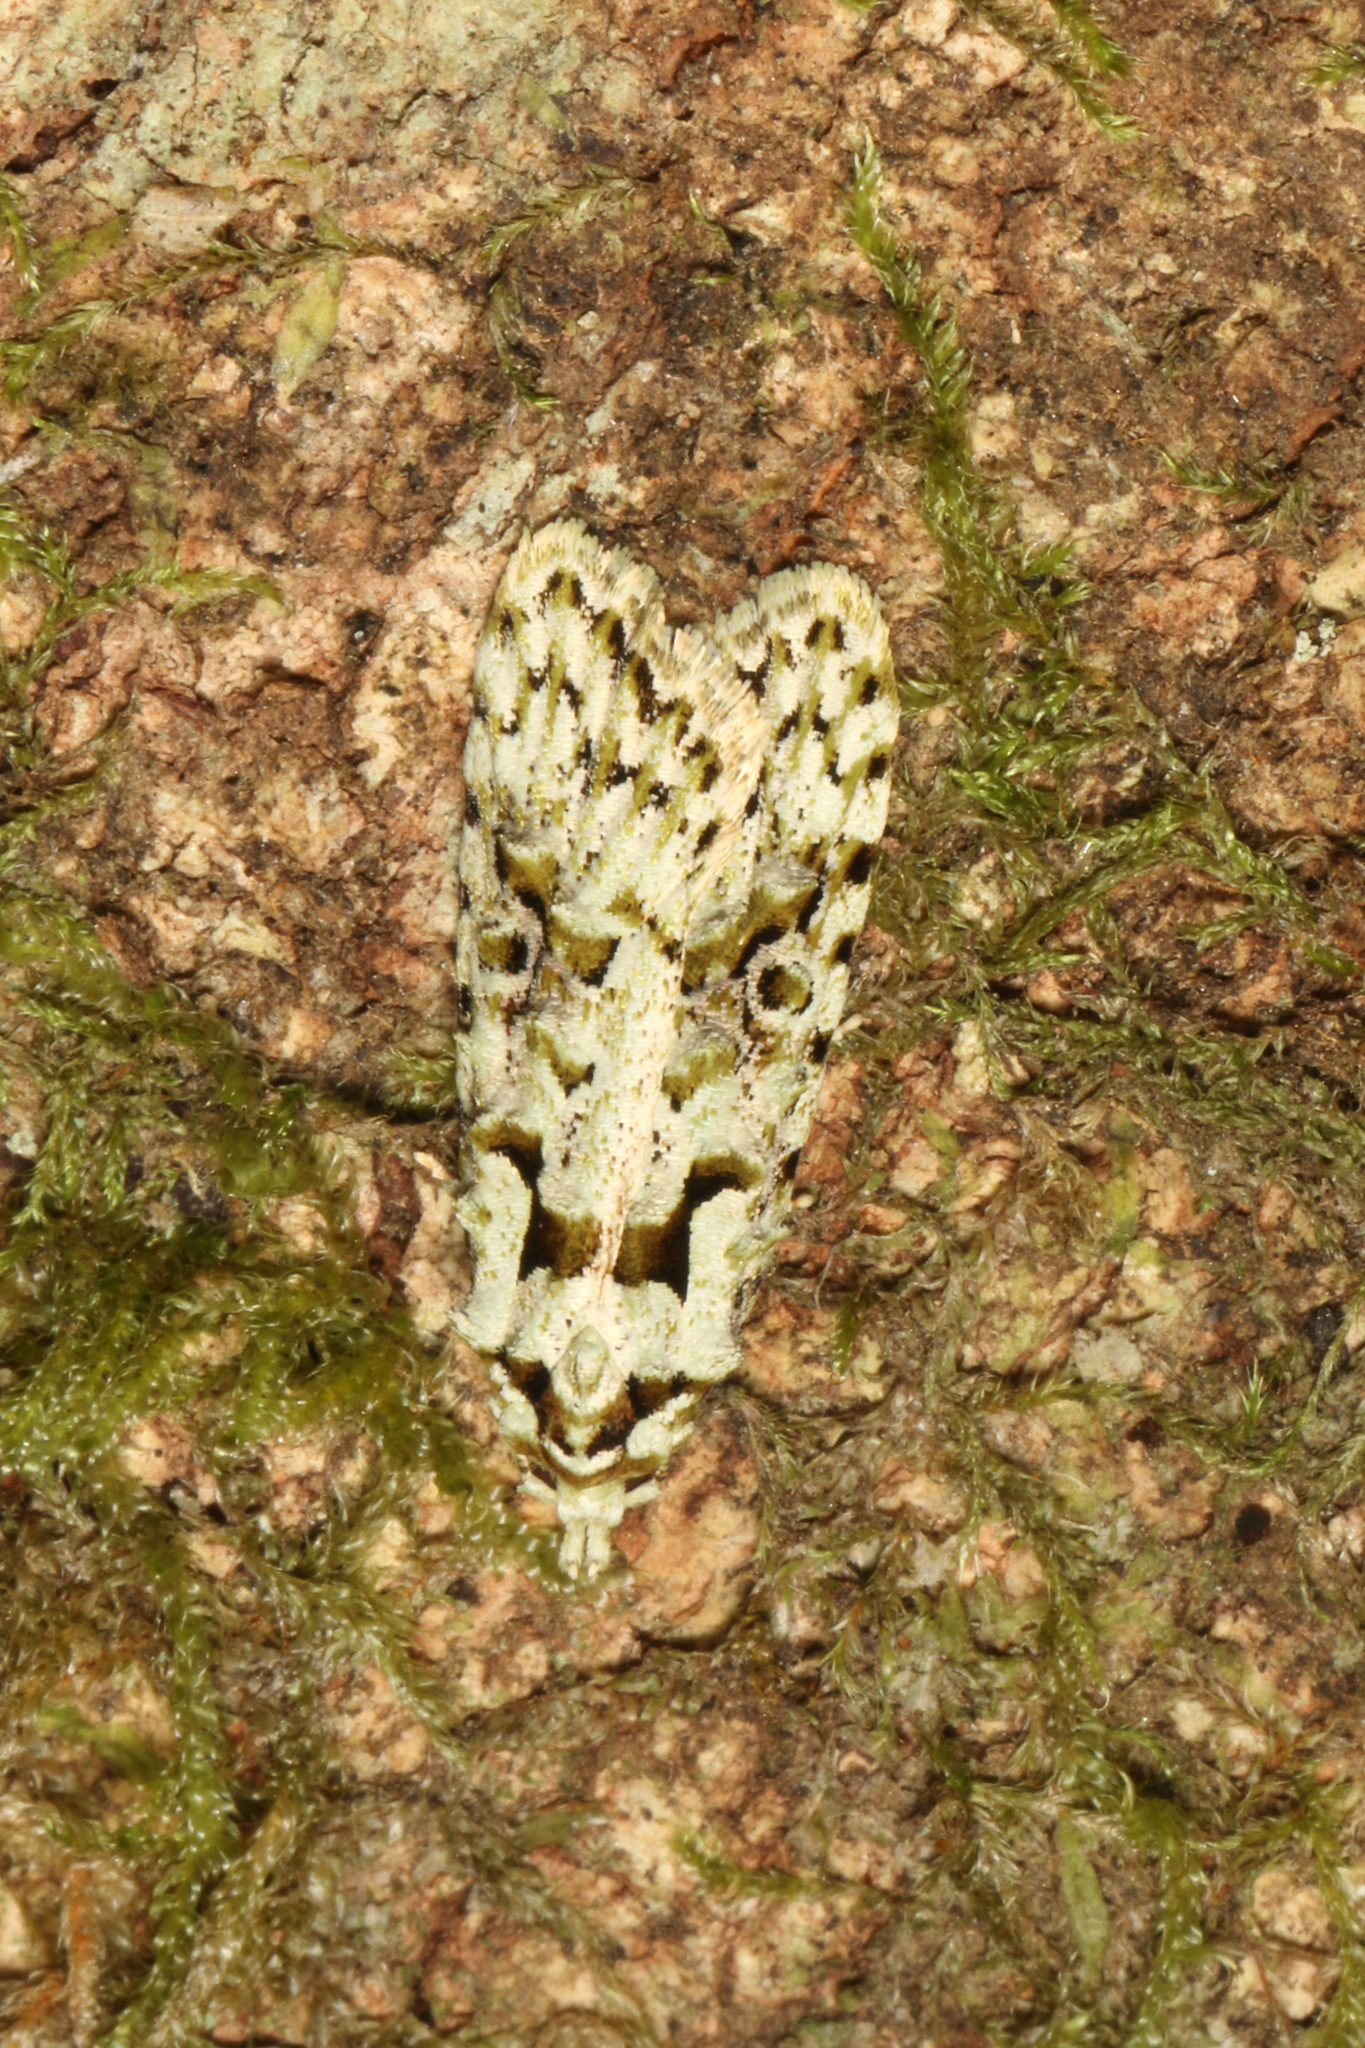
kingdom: Animalia
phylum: Arthropoda
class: Insecta
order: Lepidoptera
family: Carposinidae
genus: Carposina
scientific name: Carposina Heterocrossa eriphylla
